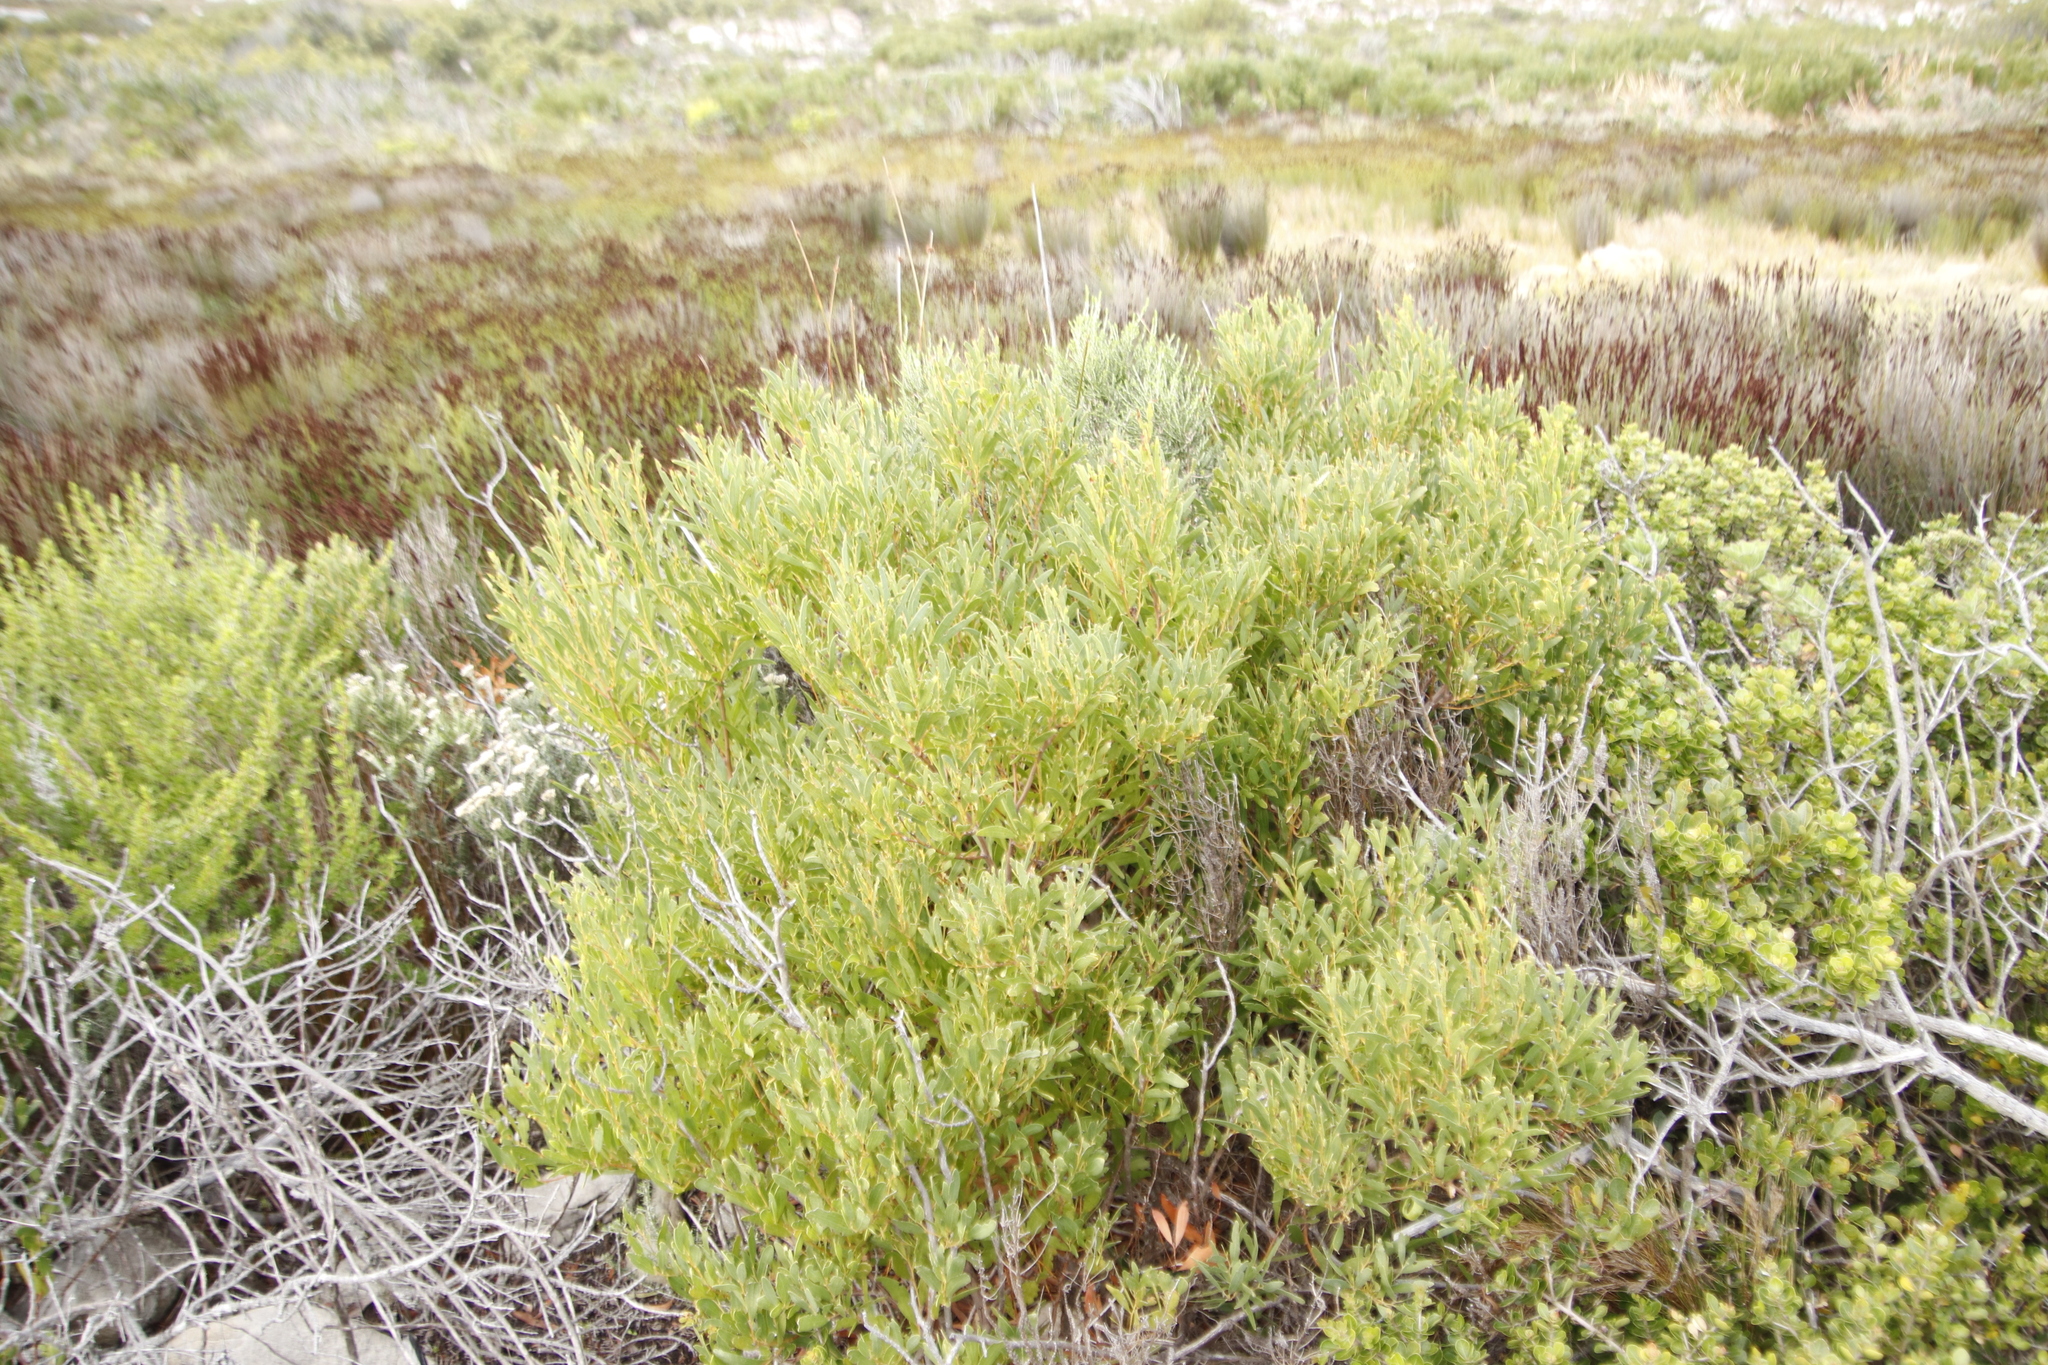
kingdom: Plantae
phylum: Tracheophyta
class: Magnoliopsida
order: Fabales
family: Fabaceae
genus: Acacia
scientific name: Acacia cyclops
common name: Coastal wattle
